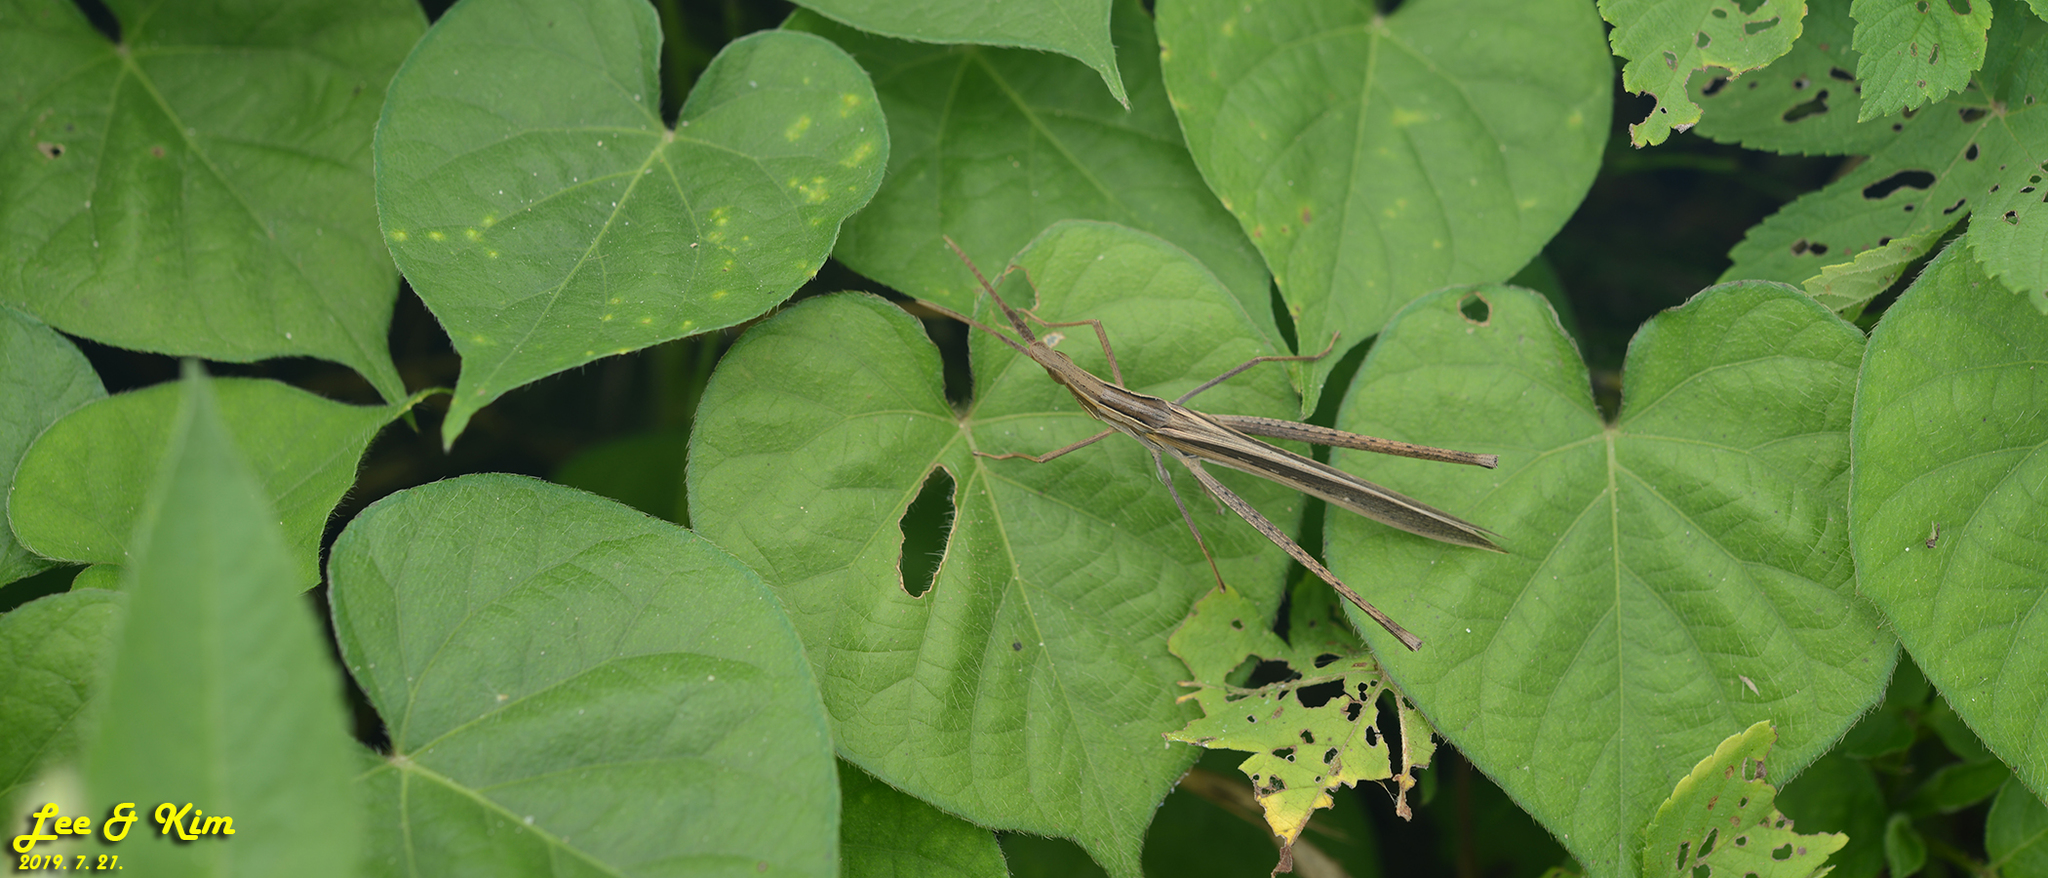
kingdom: Animalia
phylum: Arthropoda
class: Insecta
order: Orthoptera
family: Acrididae
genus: Acrida
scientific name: Acrida cinerea
